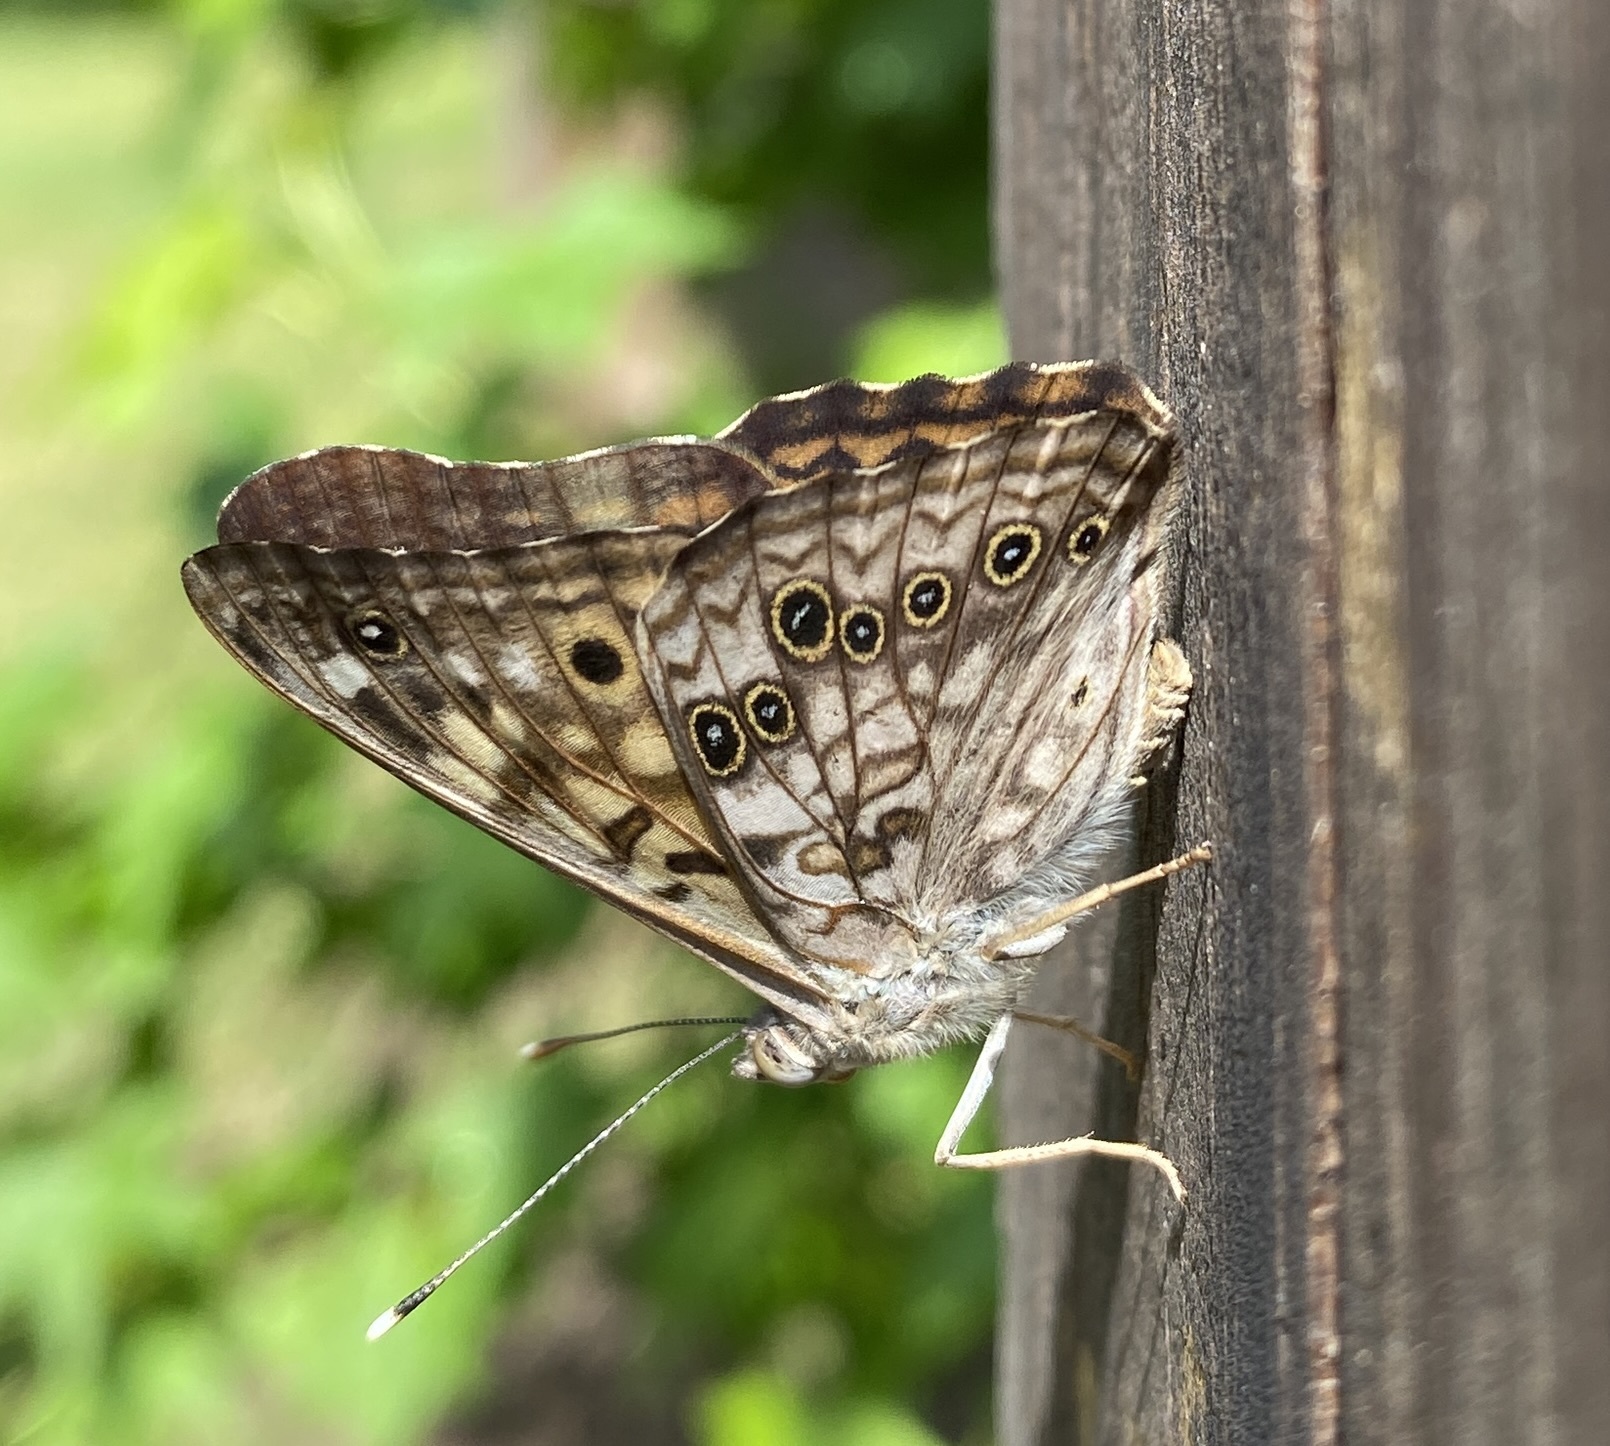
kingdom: Animalia
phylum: Arthropoda
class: Insecta
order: Lepidoptera
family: Nymphalidae
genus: Asterocampa
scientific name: Asterocampa celtis
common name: Hackberry emperor
